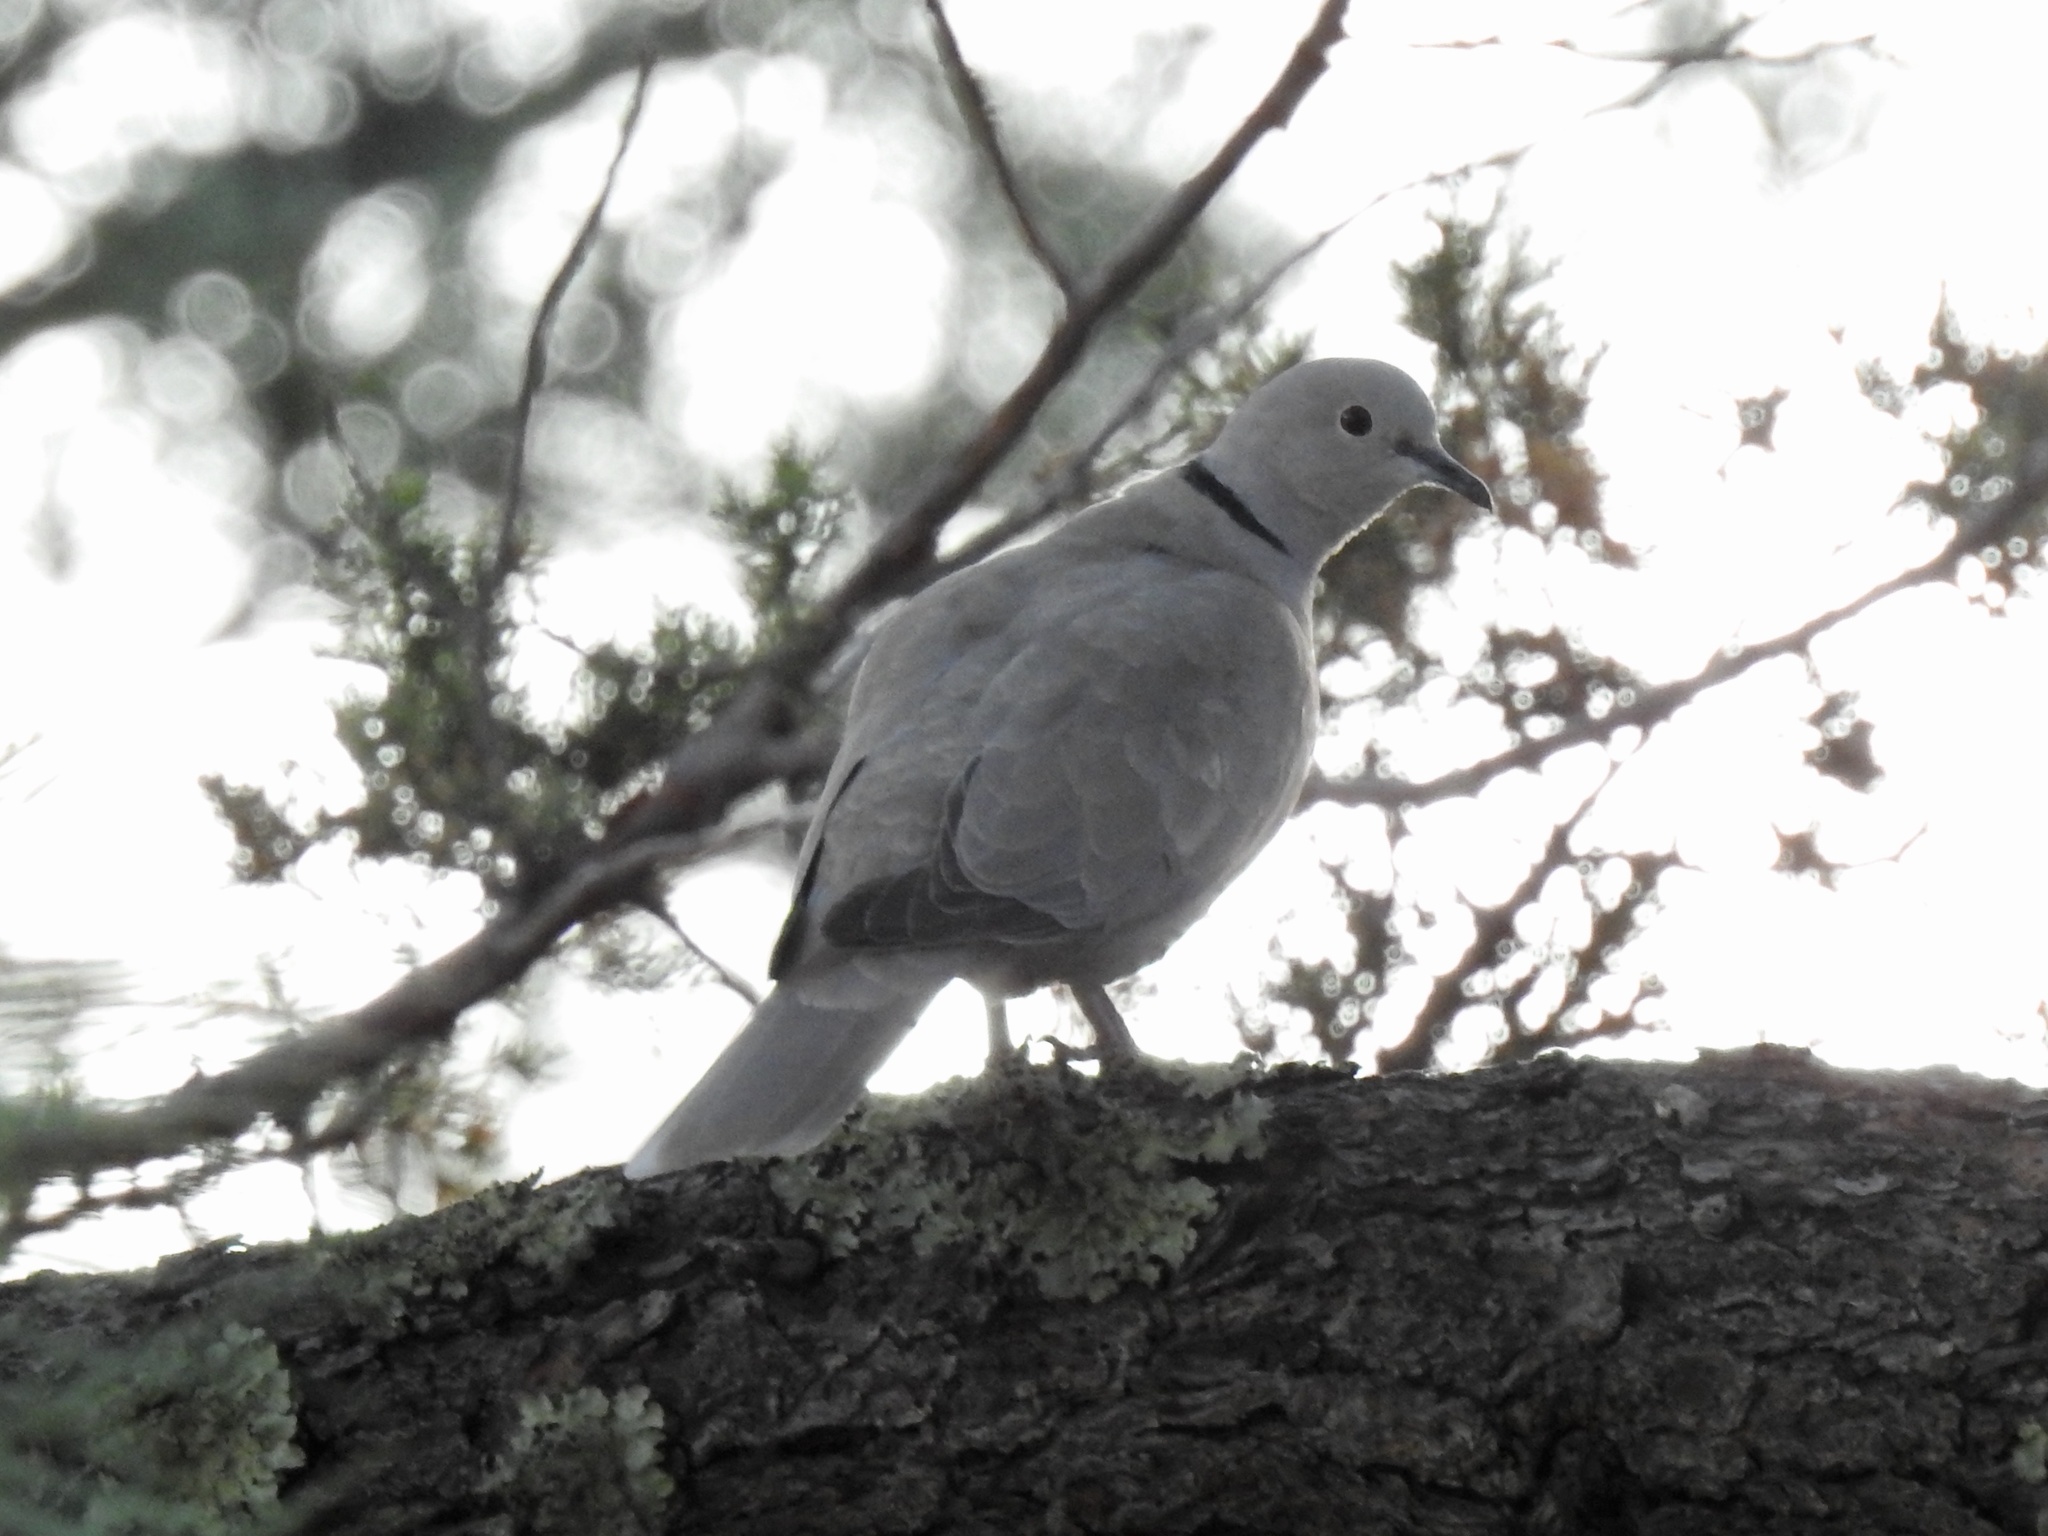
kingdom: Animalia
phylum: Chordata
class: Aves
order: Columbiformes
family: Columbidae
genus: Streptopelia
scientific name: Streptopelia decaocto
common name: Eurasian collared dove
